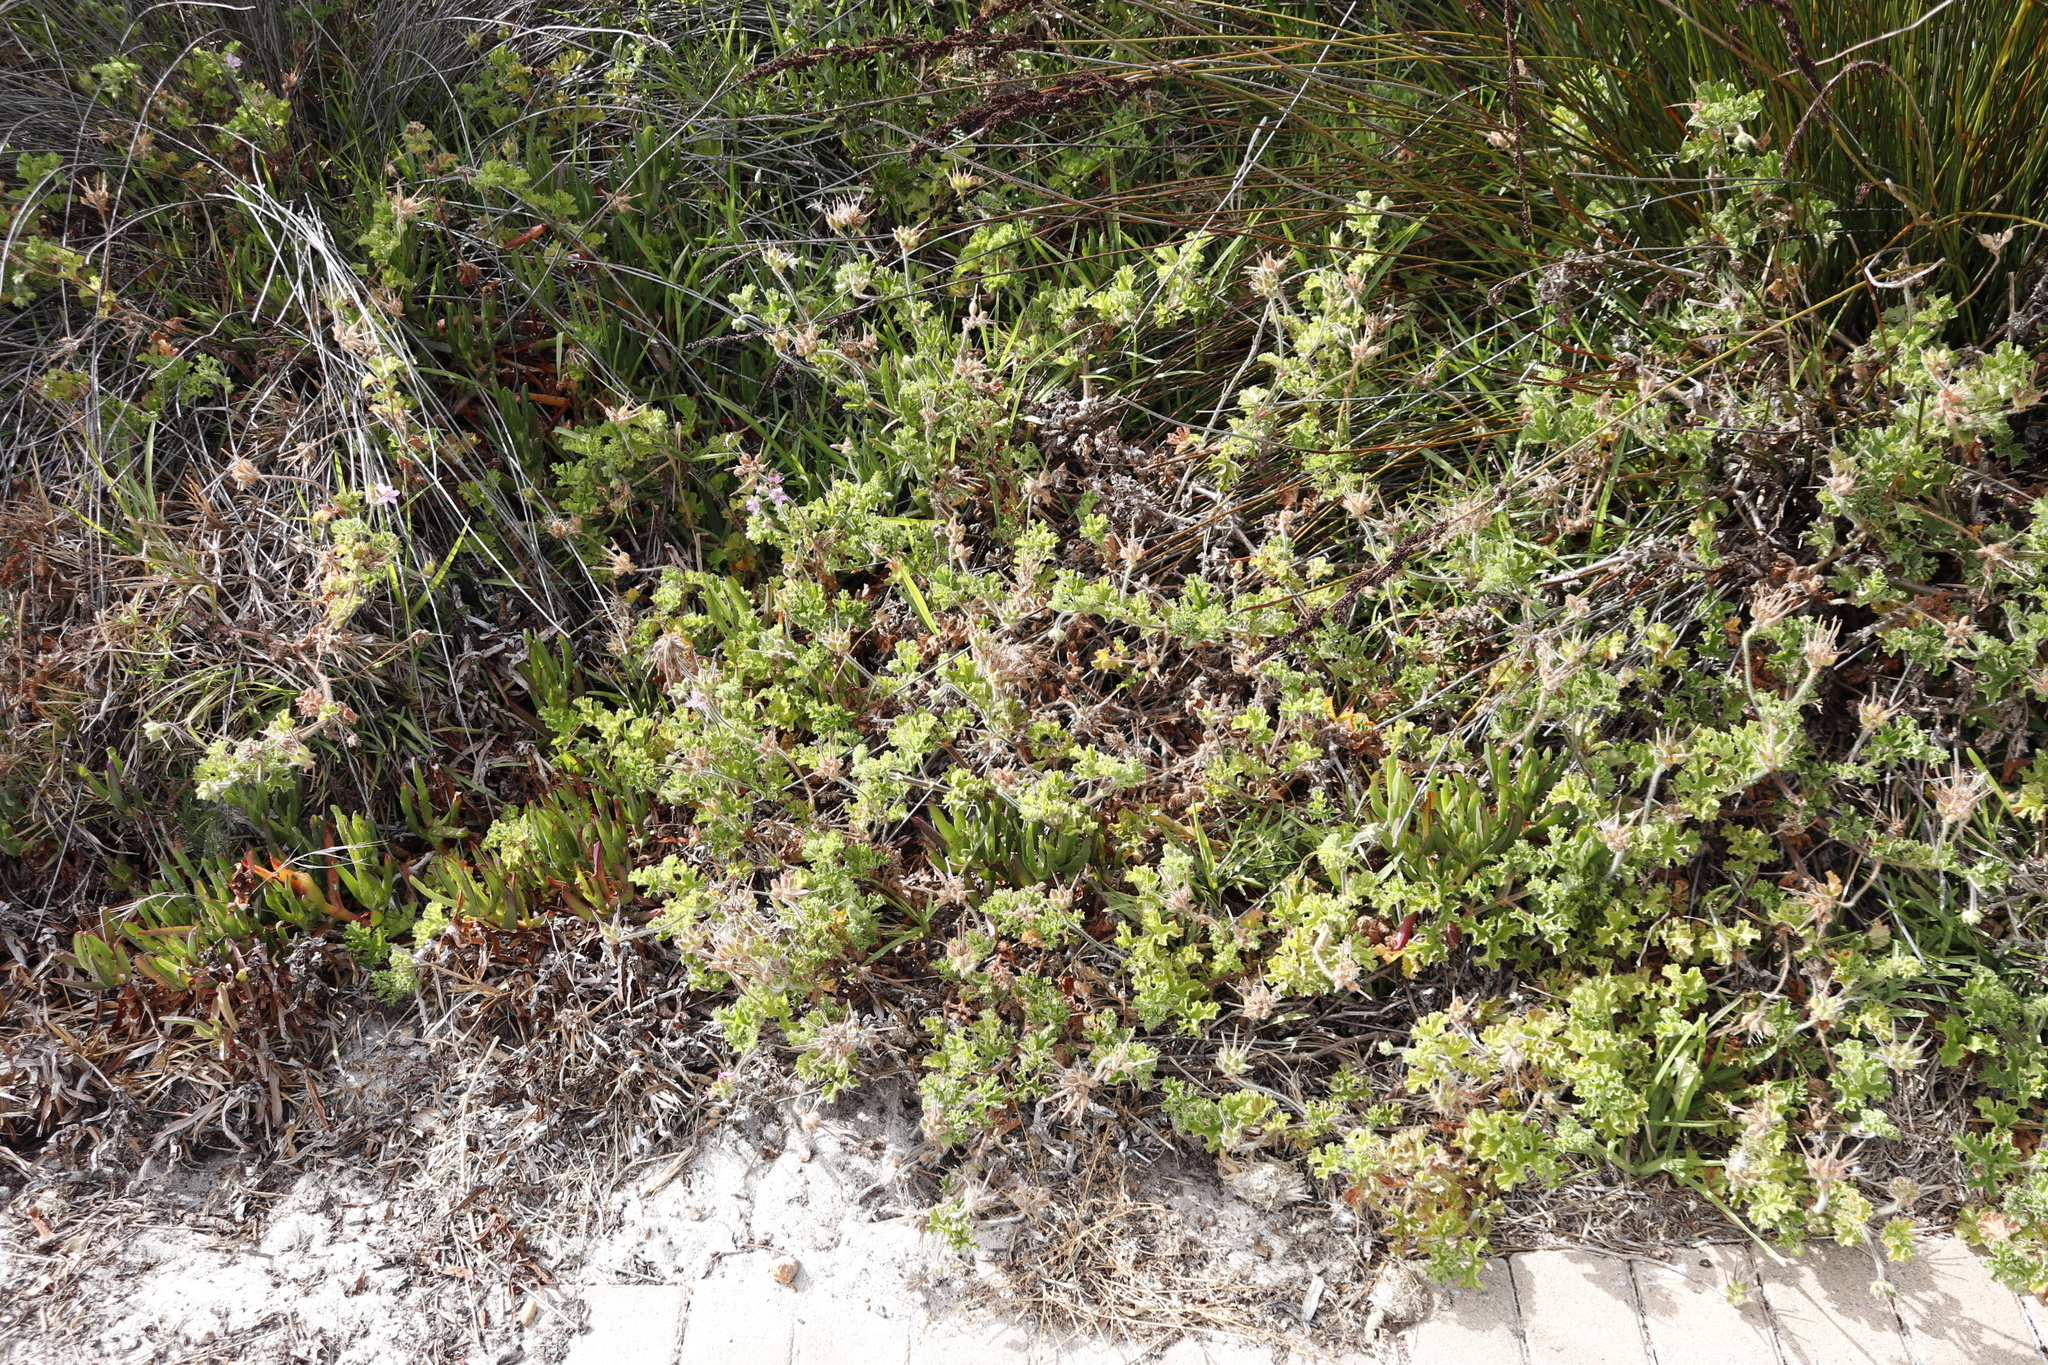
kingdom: Plantae
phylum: Tracheophyta
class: Magnoliopsida
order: Geraniales
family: Geraniaceae
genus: Pelargonium
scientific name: Pelargonium capitatum
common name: Rose scented geranium
